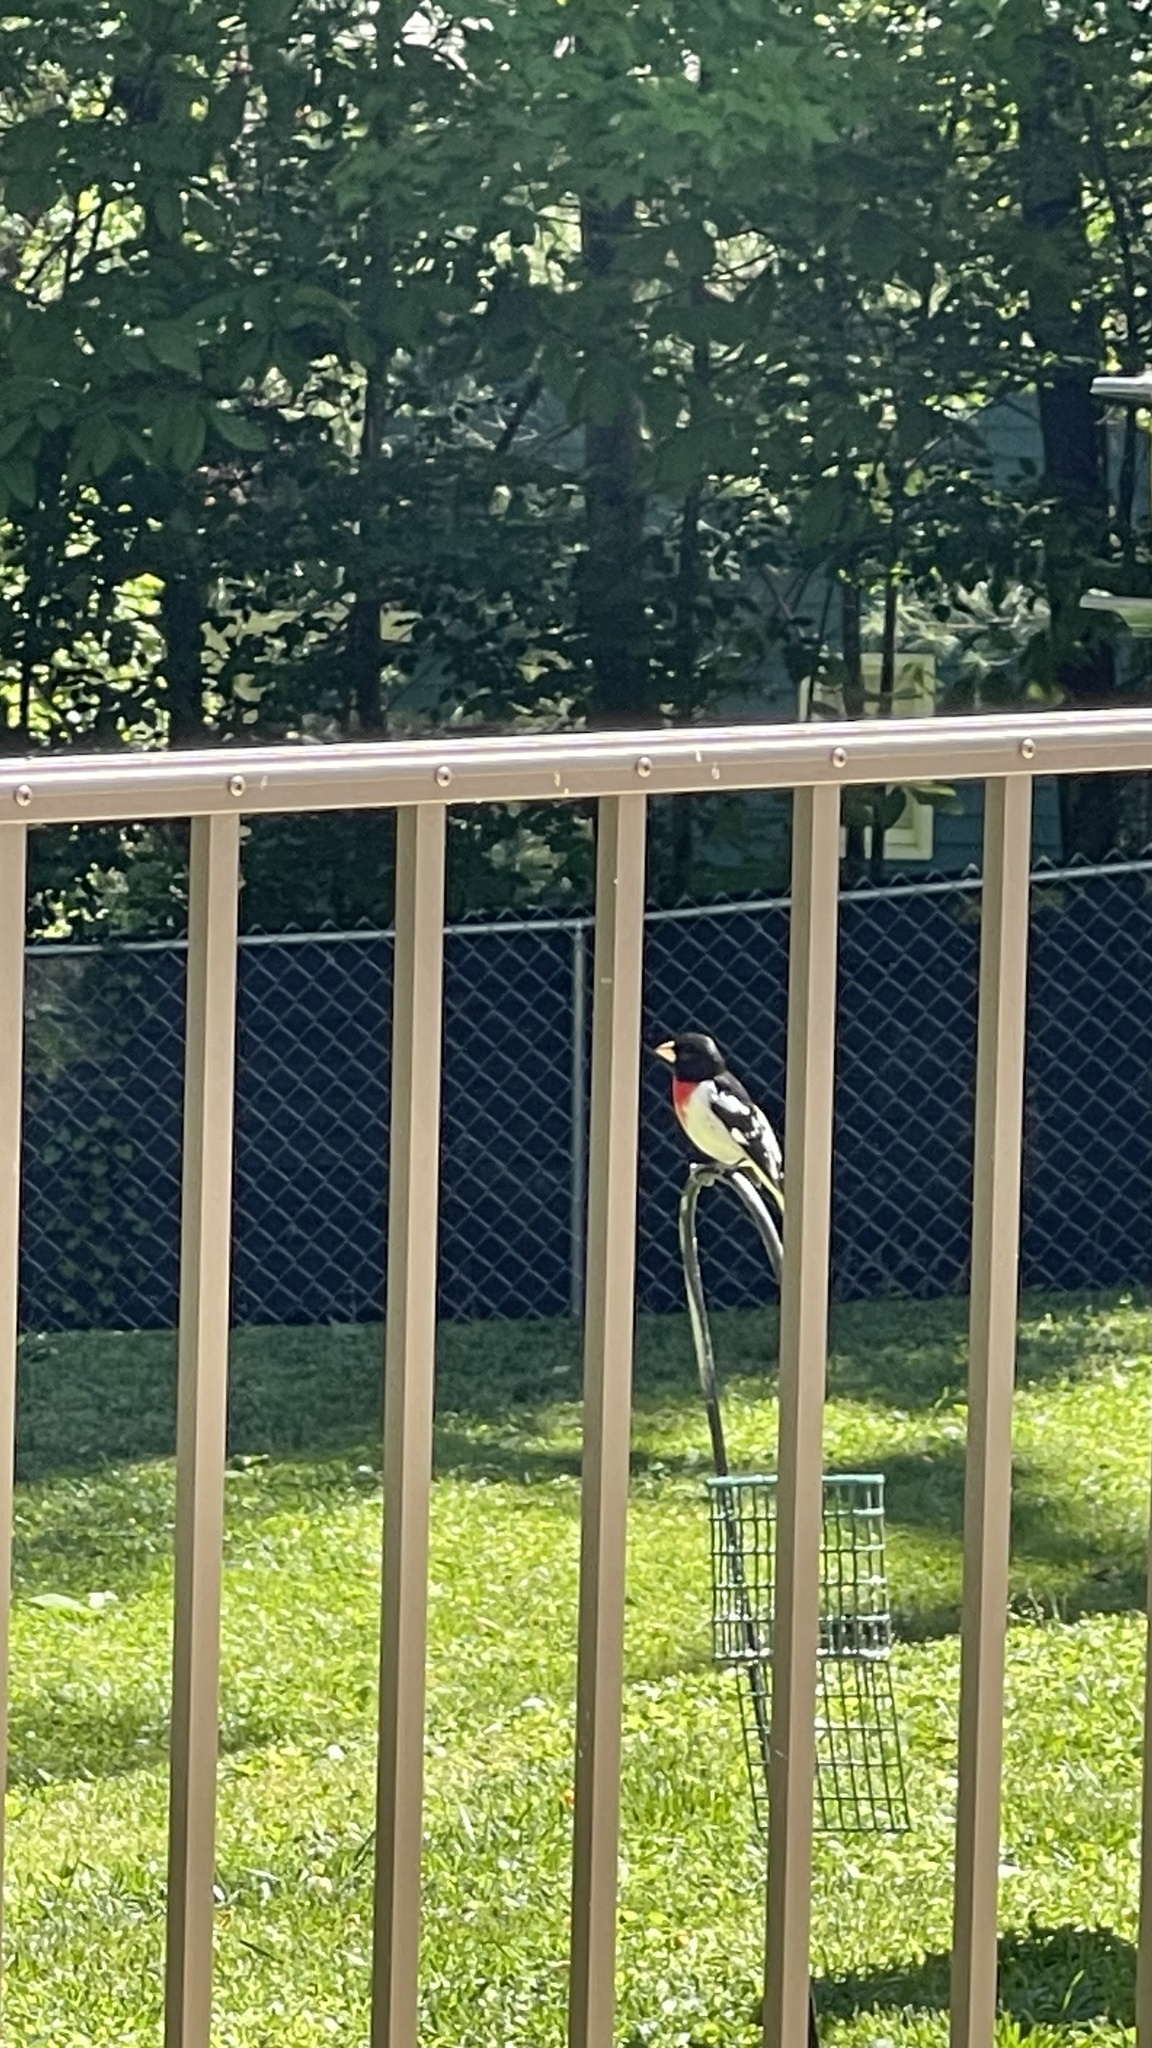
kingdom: Animalia
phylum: Chordata
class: Aves
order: Passeriformes
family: Cardinalidae
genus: Pheucticus
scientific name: Pheucticus ludovicianus
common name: Rose-breasted grosbeak
